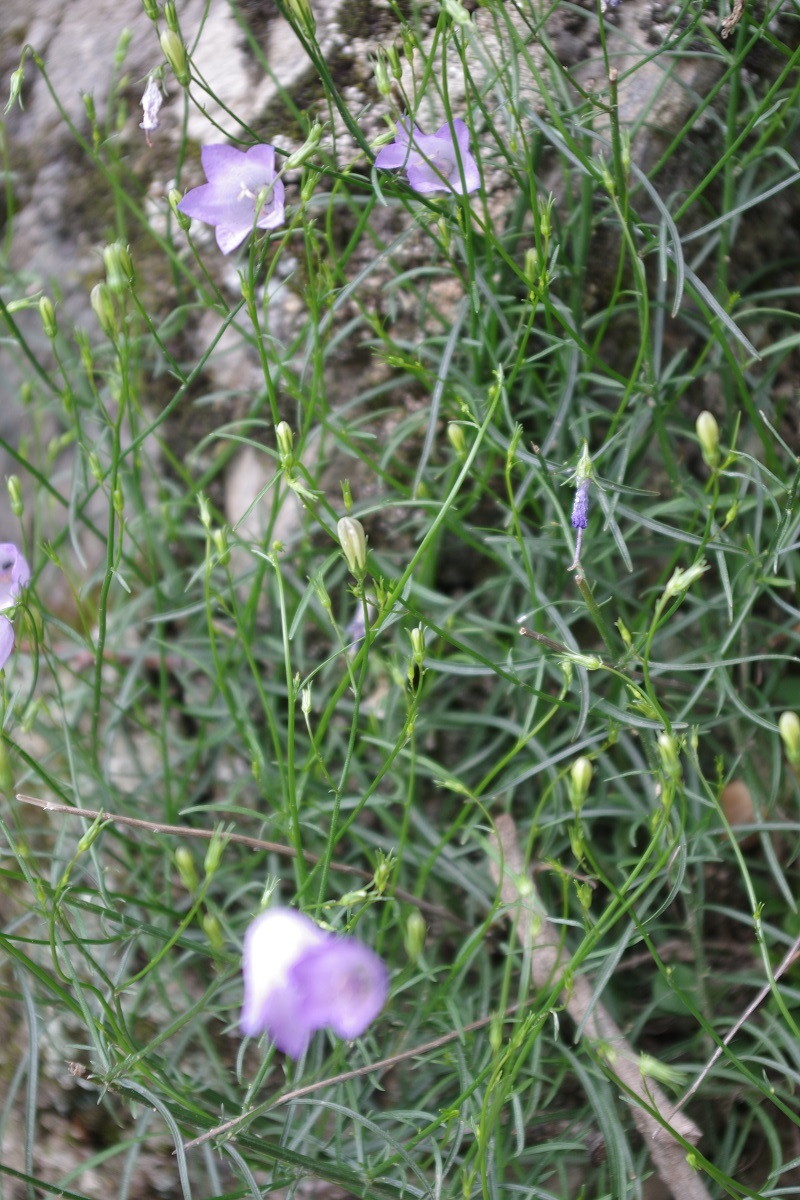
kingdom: Plantae
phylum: Tracheophyta
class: Magnoliopsida
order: Asterales
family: Campanulaceae
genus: Campanula
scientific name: Campanula rotundifolia
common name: Harebell
